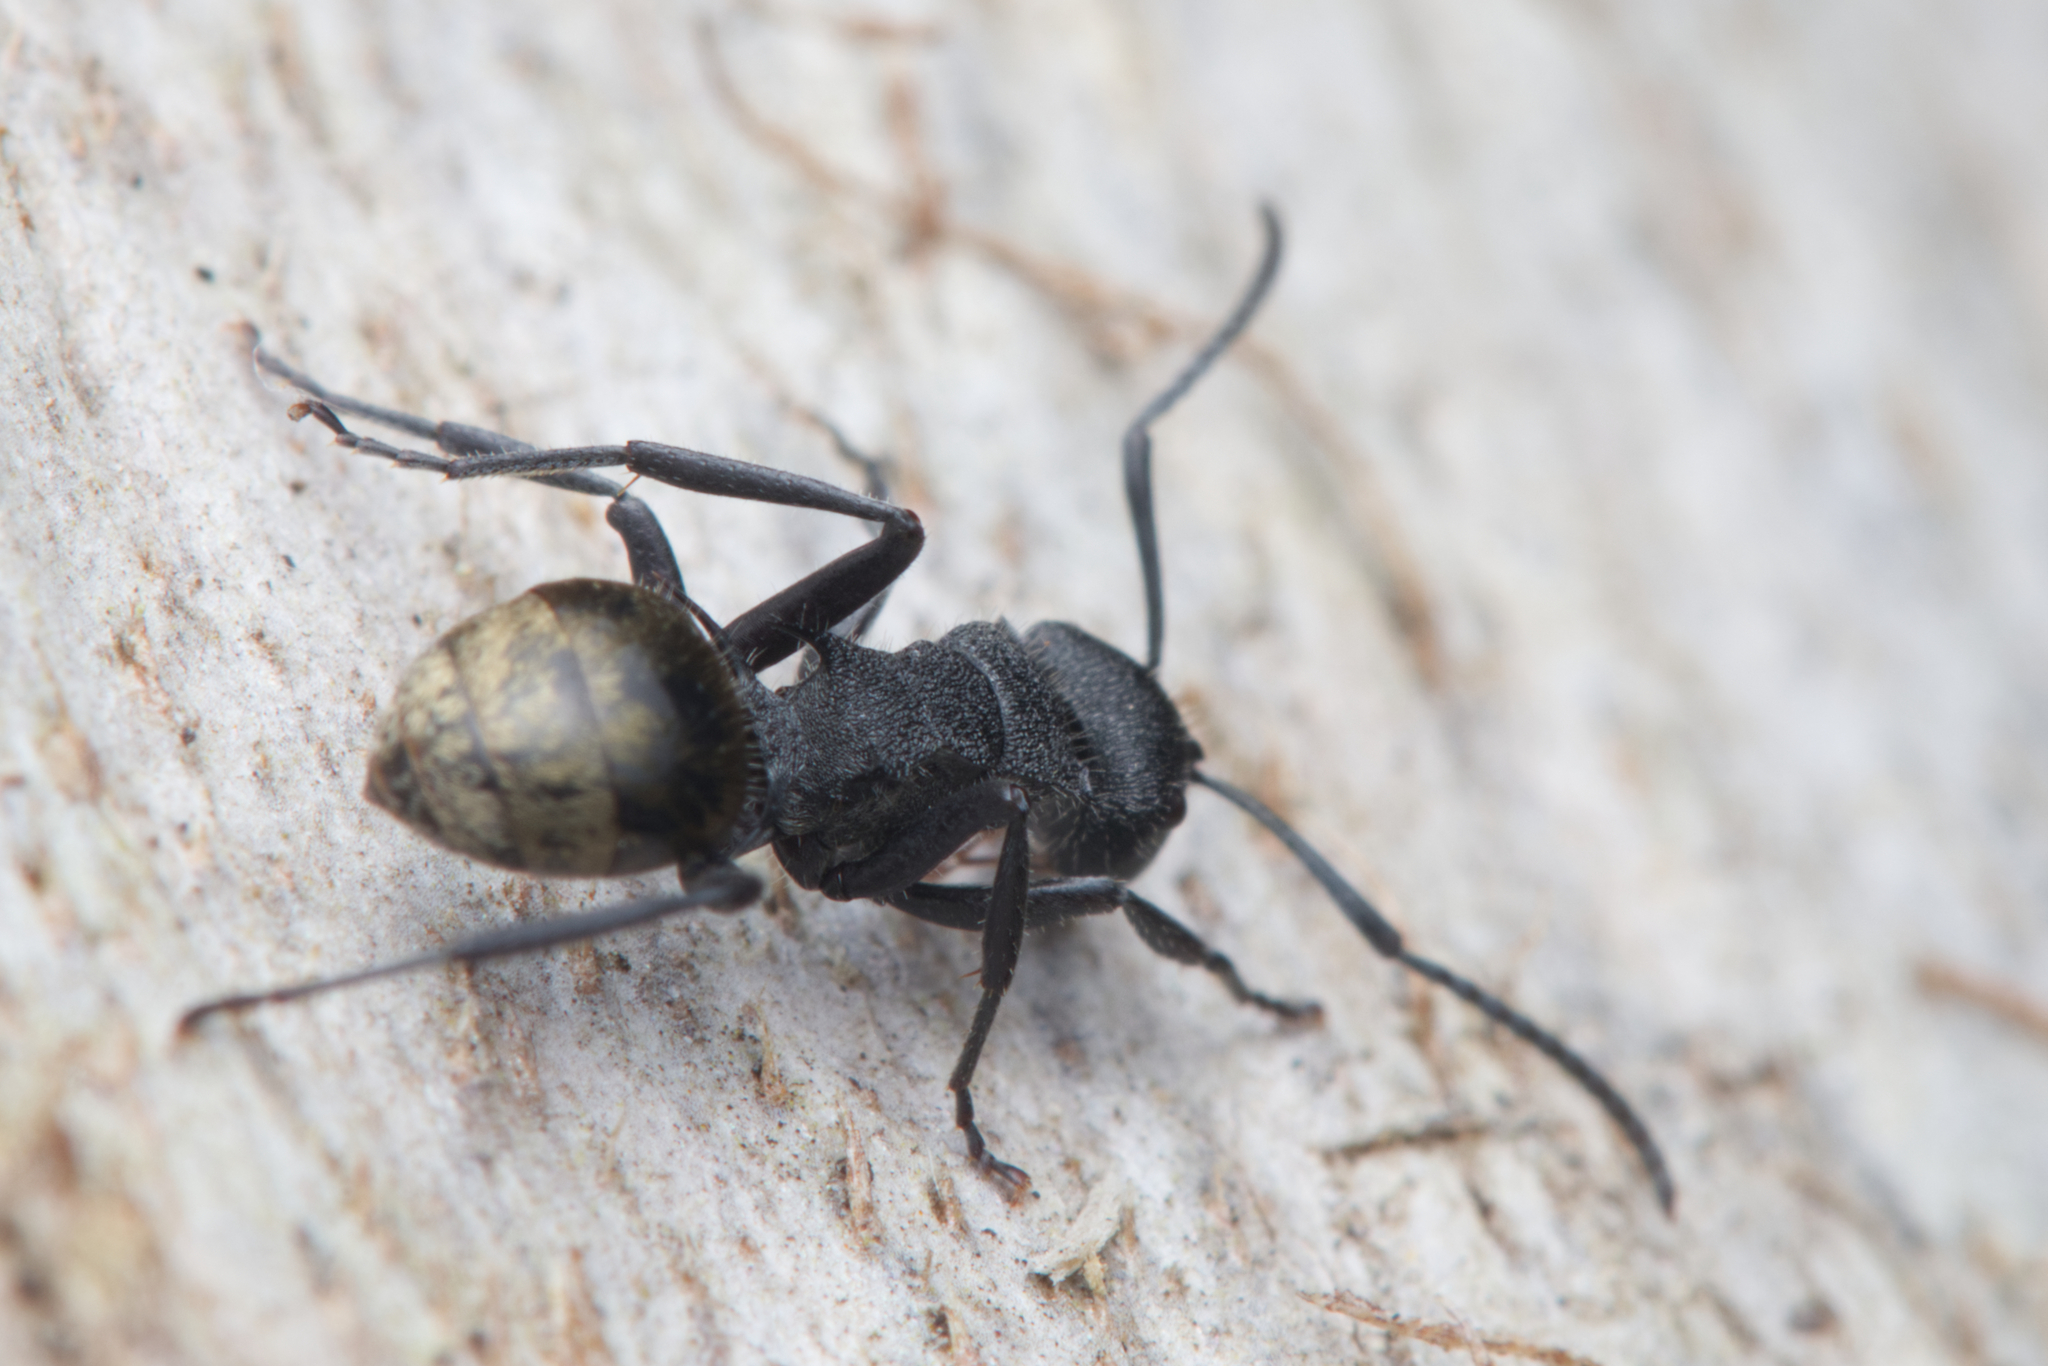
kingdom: Animalia
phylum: Arthropoda
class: Insecta
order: Hymenoptera
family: Formicidae
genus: Polyrhachis
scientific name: Polyrhachis erato
